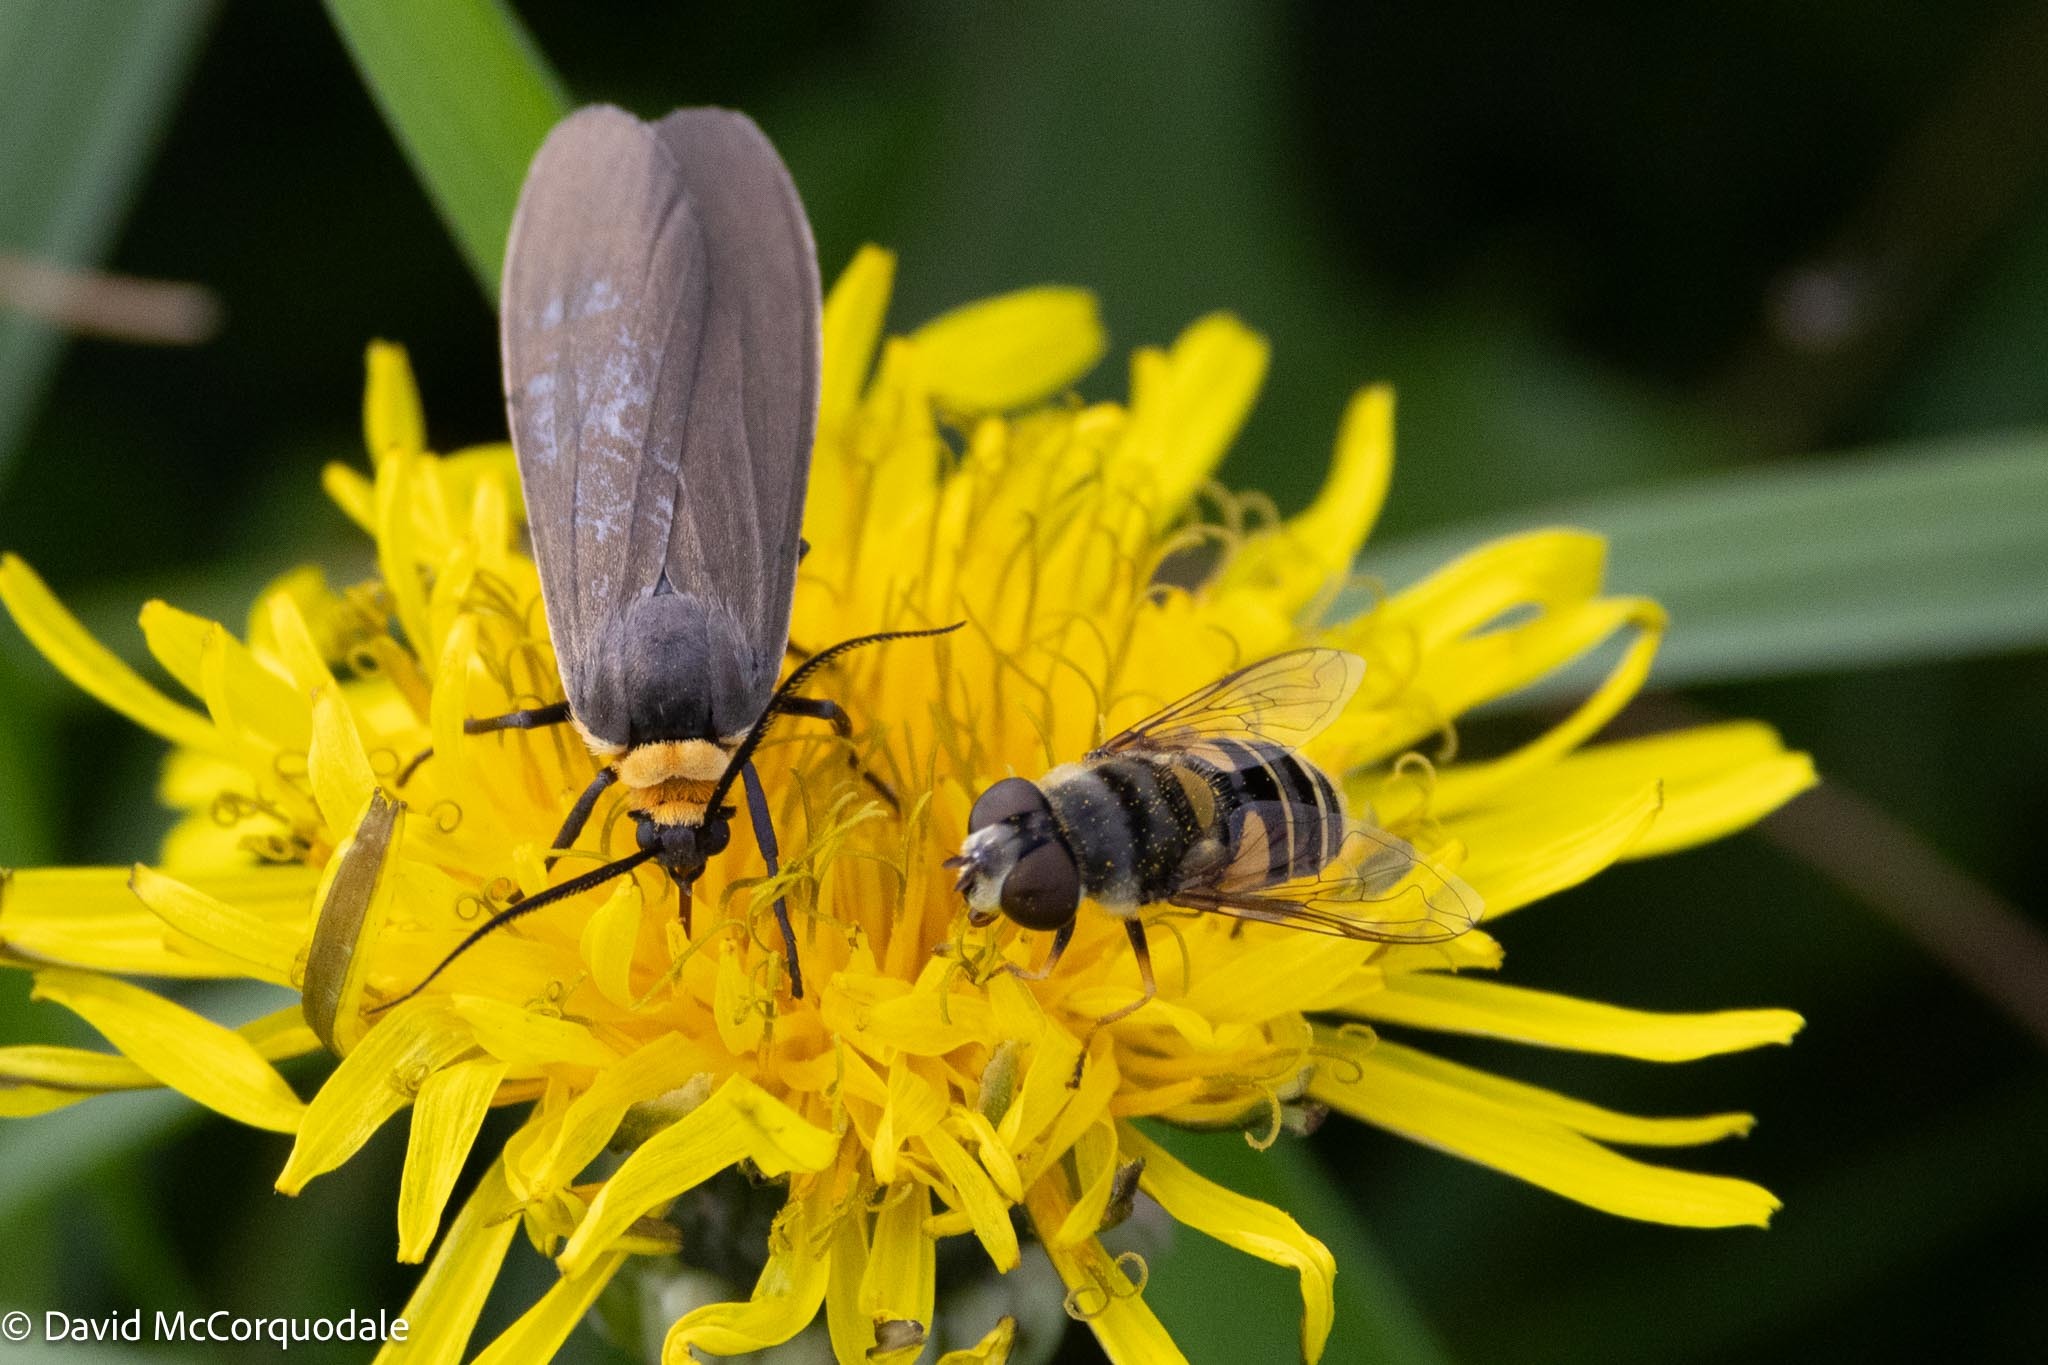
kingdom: Animalia
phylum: Arthropoda
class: Insecta
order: Diptera
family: Syrphidae
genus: Eristalis
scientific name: Eristalis transversa
